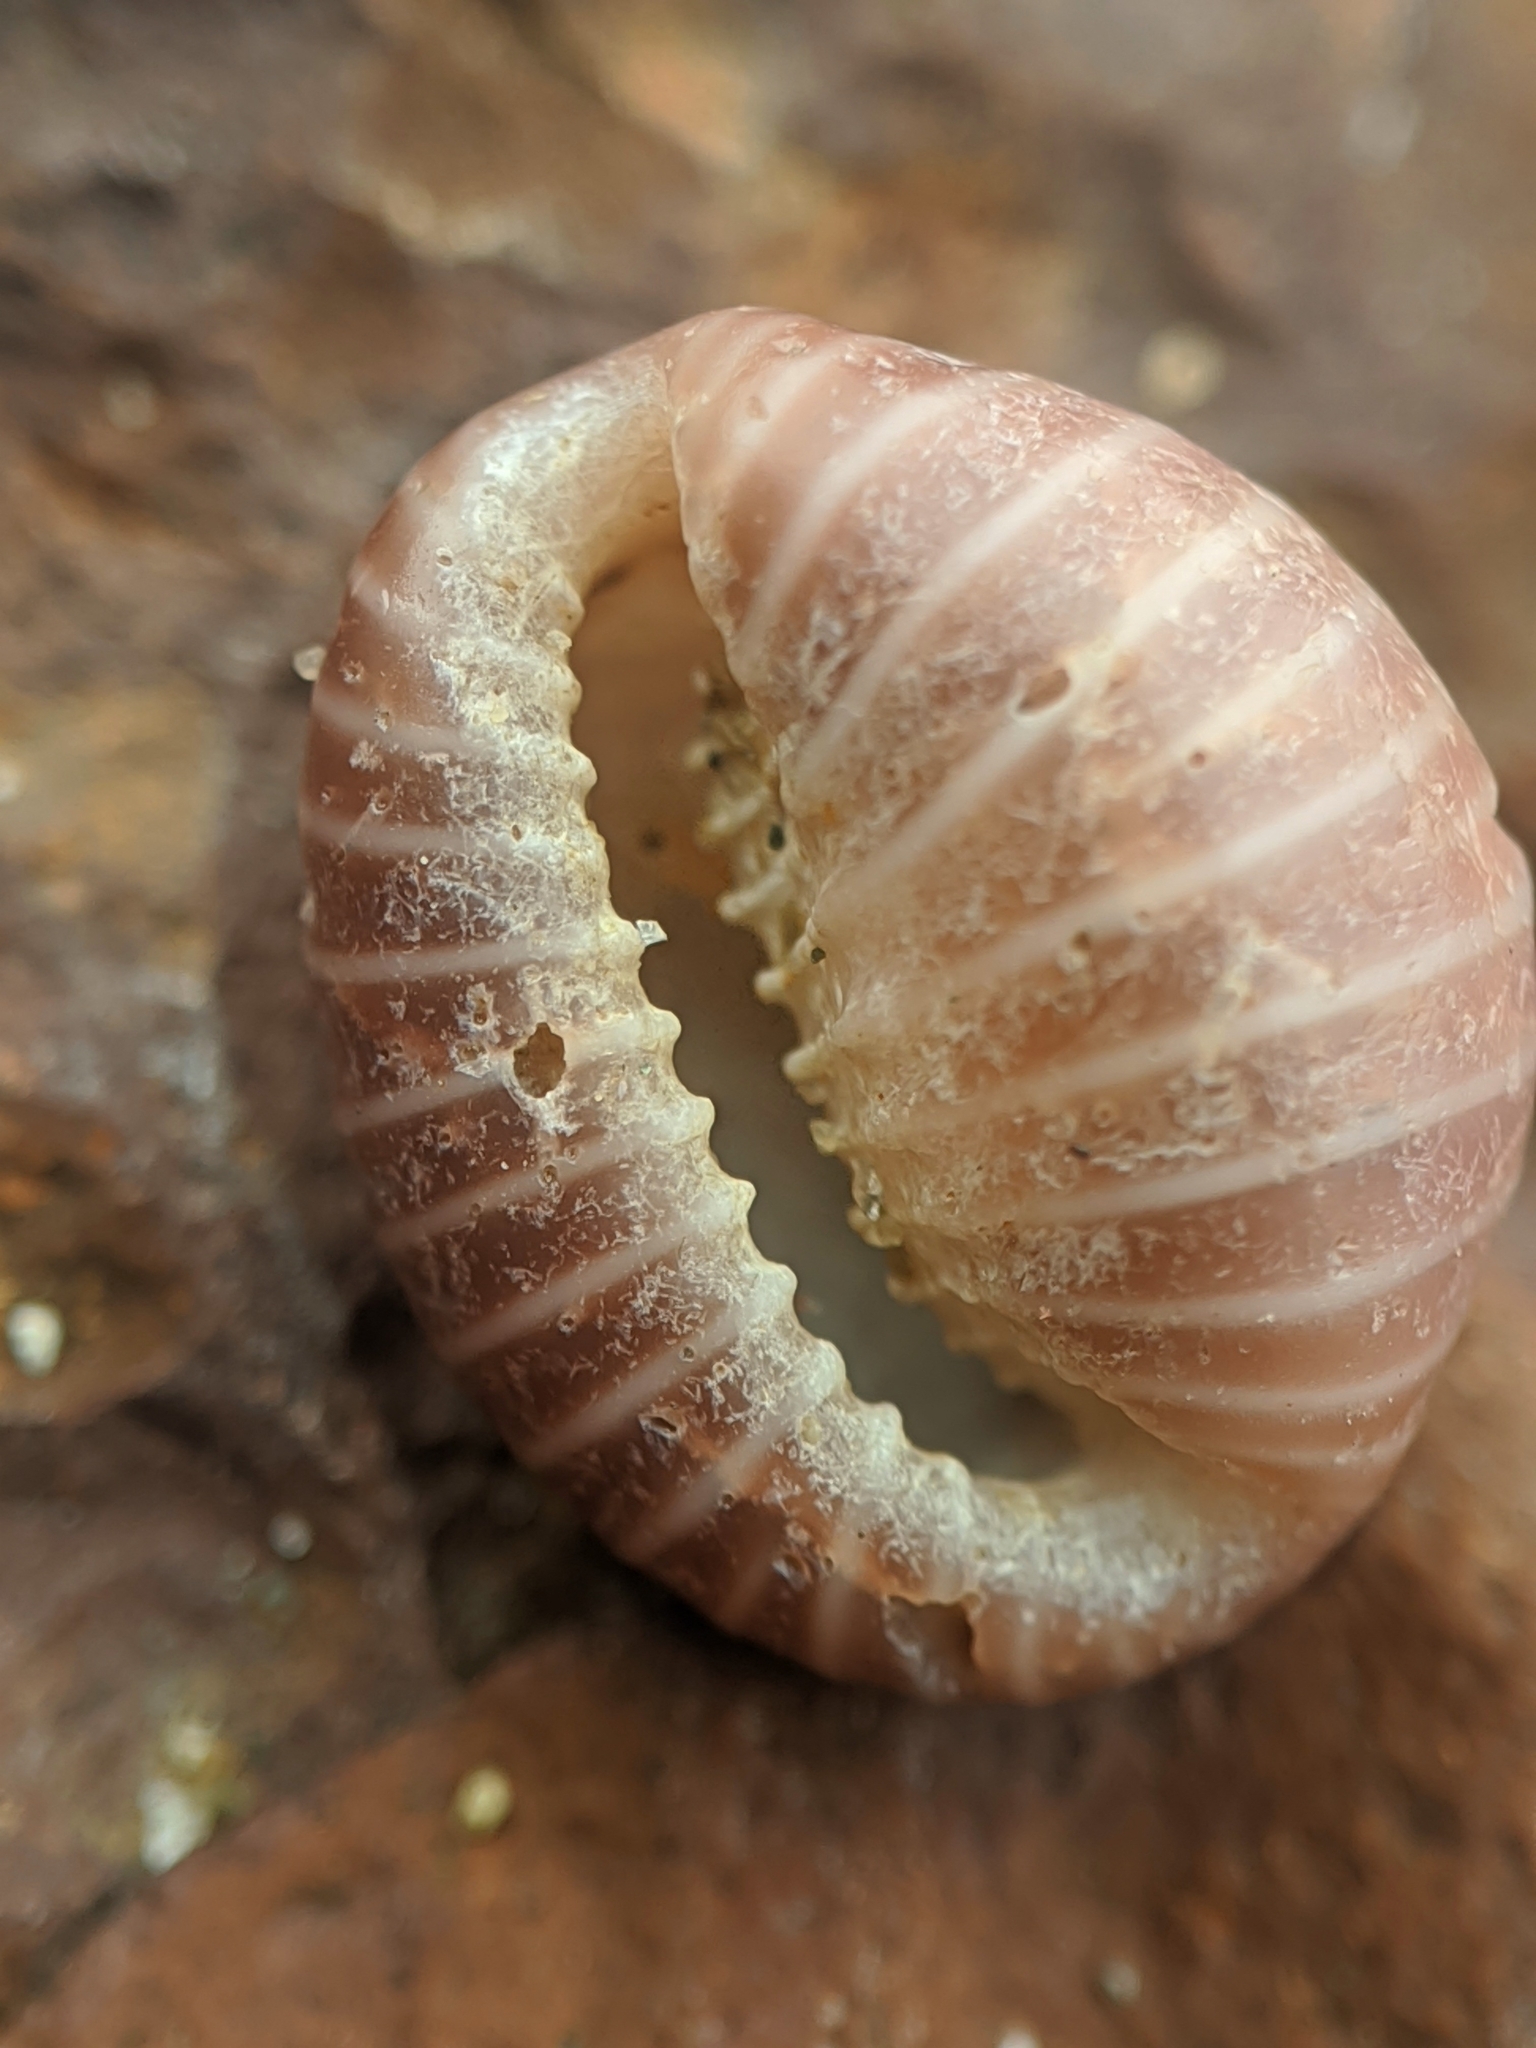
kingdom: Animalia
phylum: Mollusca
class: Gastropoda
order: Littorinimorpha
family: Triviidae
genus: Pseudopusula
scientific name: Pseudopusula californiana
